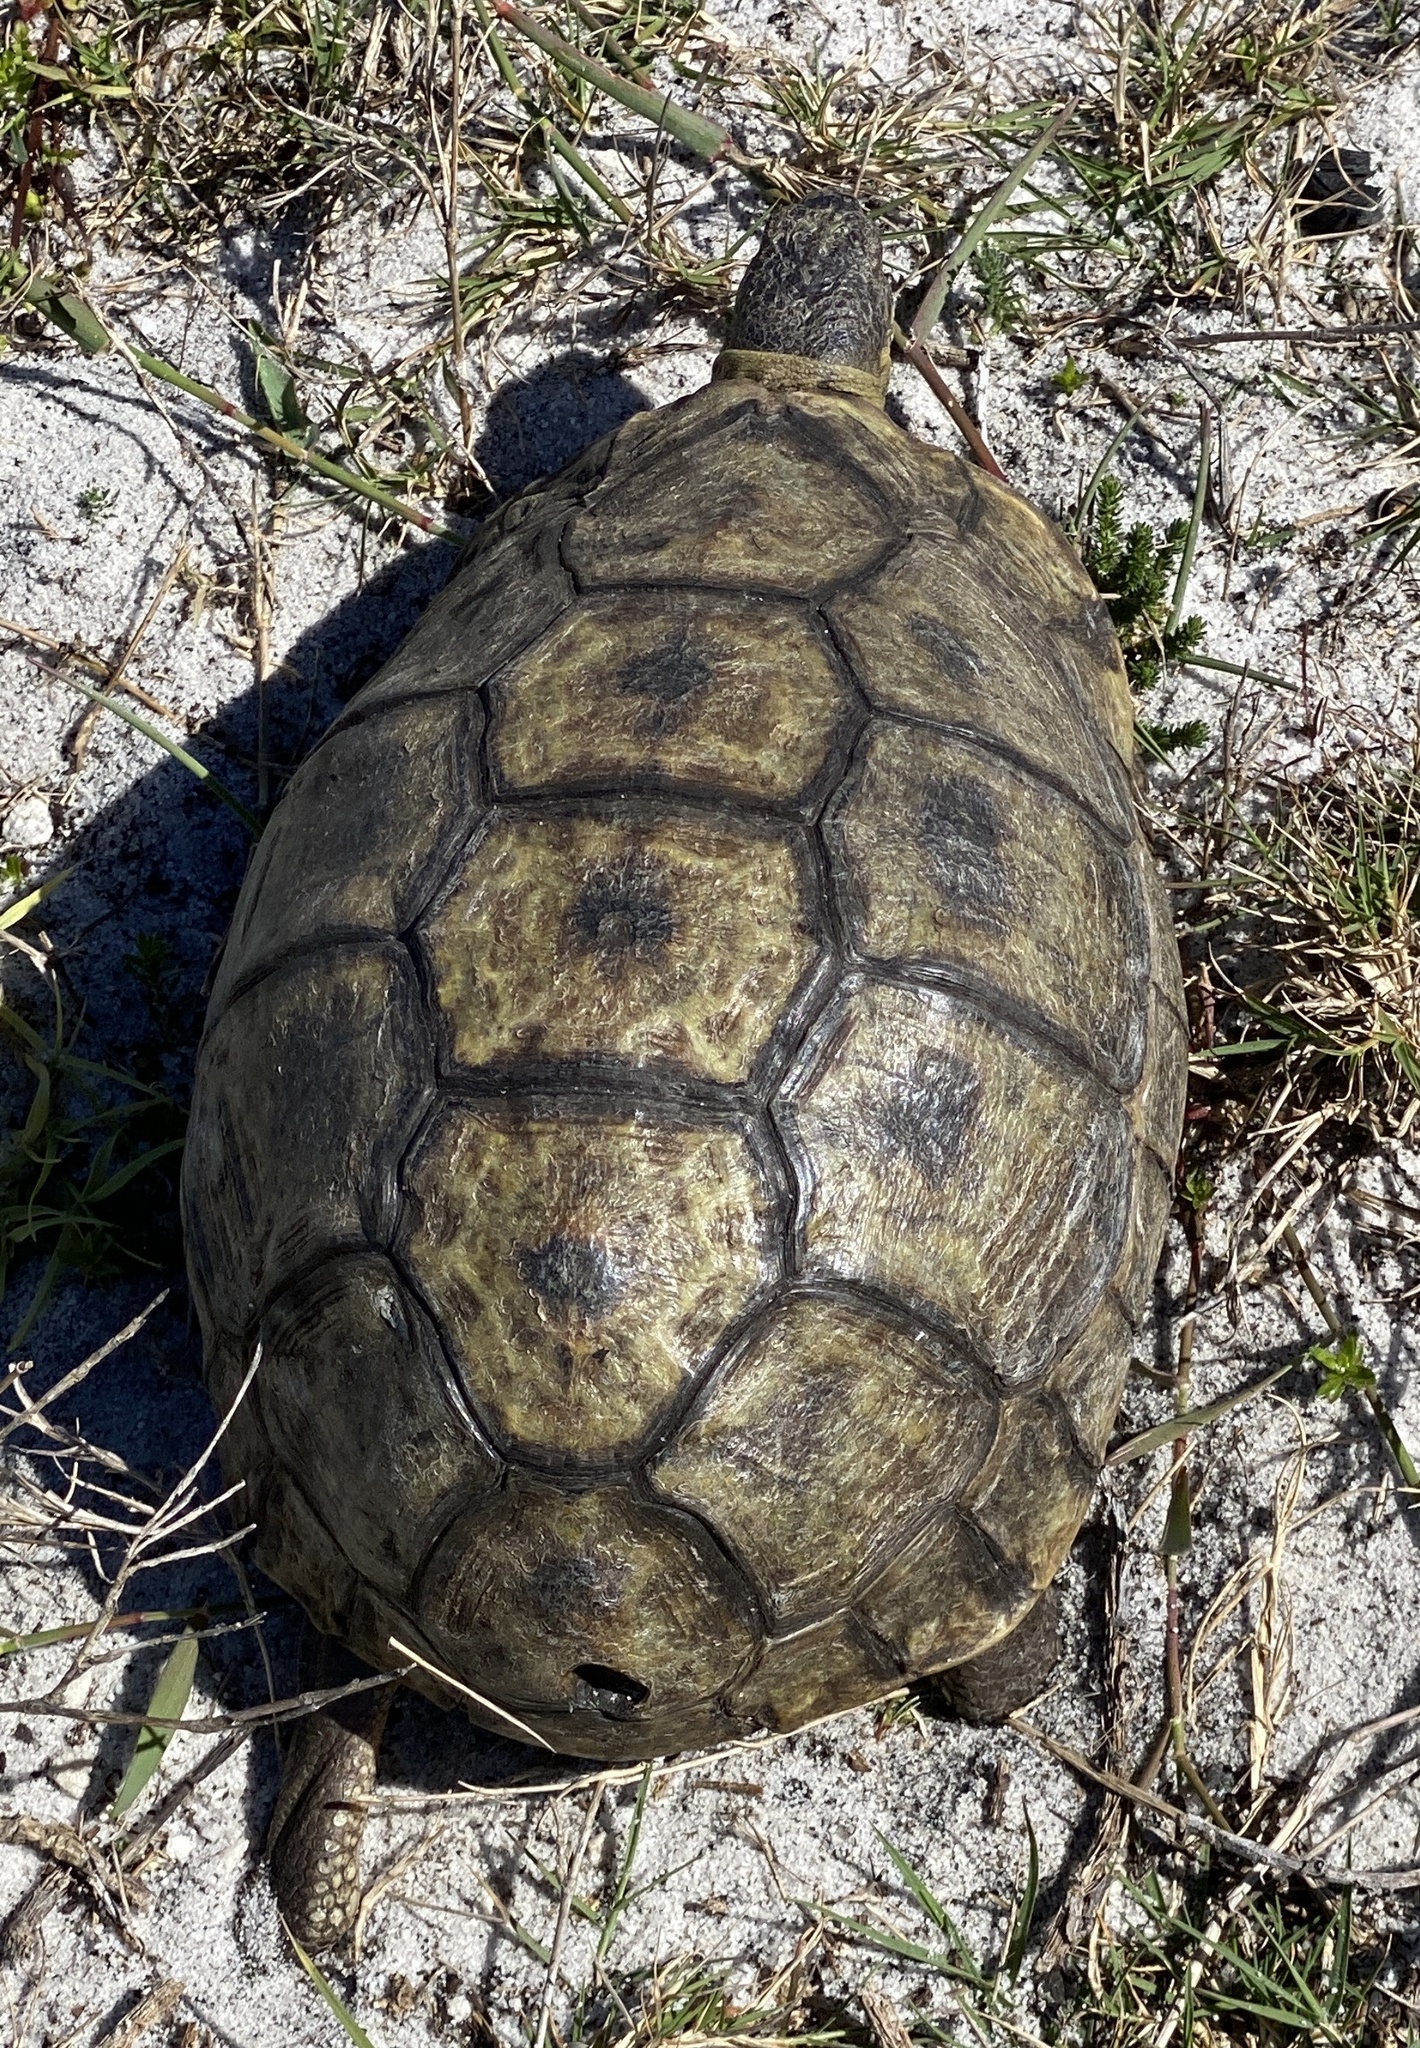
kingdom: Animalia
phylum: Chordata
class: Testudines
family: Testudinidae
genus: Chersina
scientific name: Chersina angulata
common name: South african bowsprit tortoise
